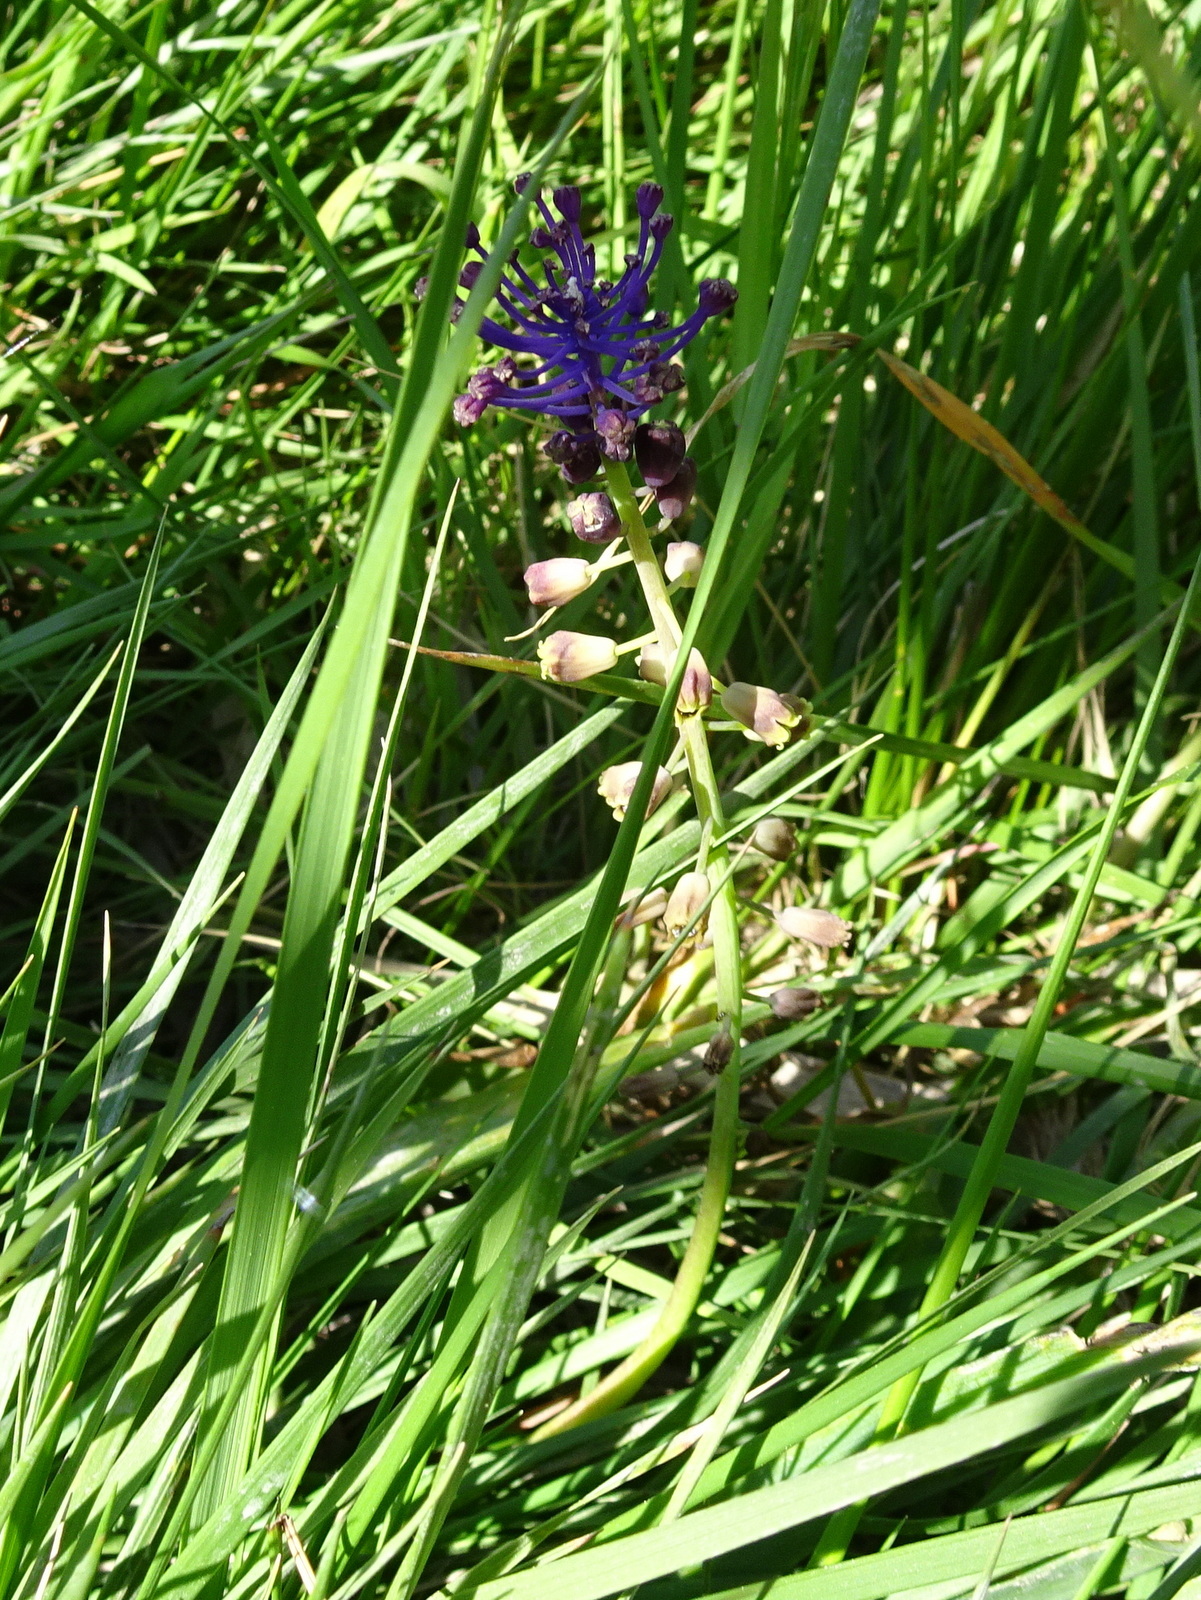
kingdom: Plantae
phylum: Tracheophyta
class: Liliopsida
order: Asparagales
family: Asparagaceae
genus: Muscari
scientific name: Muscari comosum
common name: Tassel hyacinth
